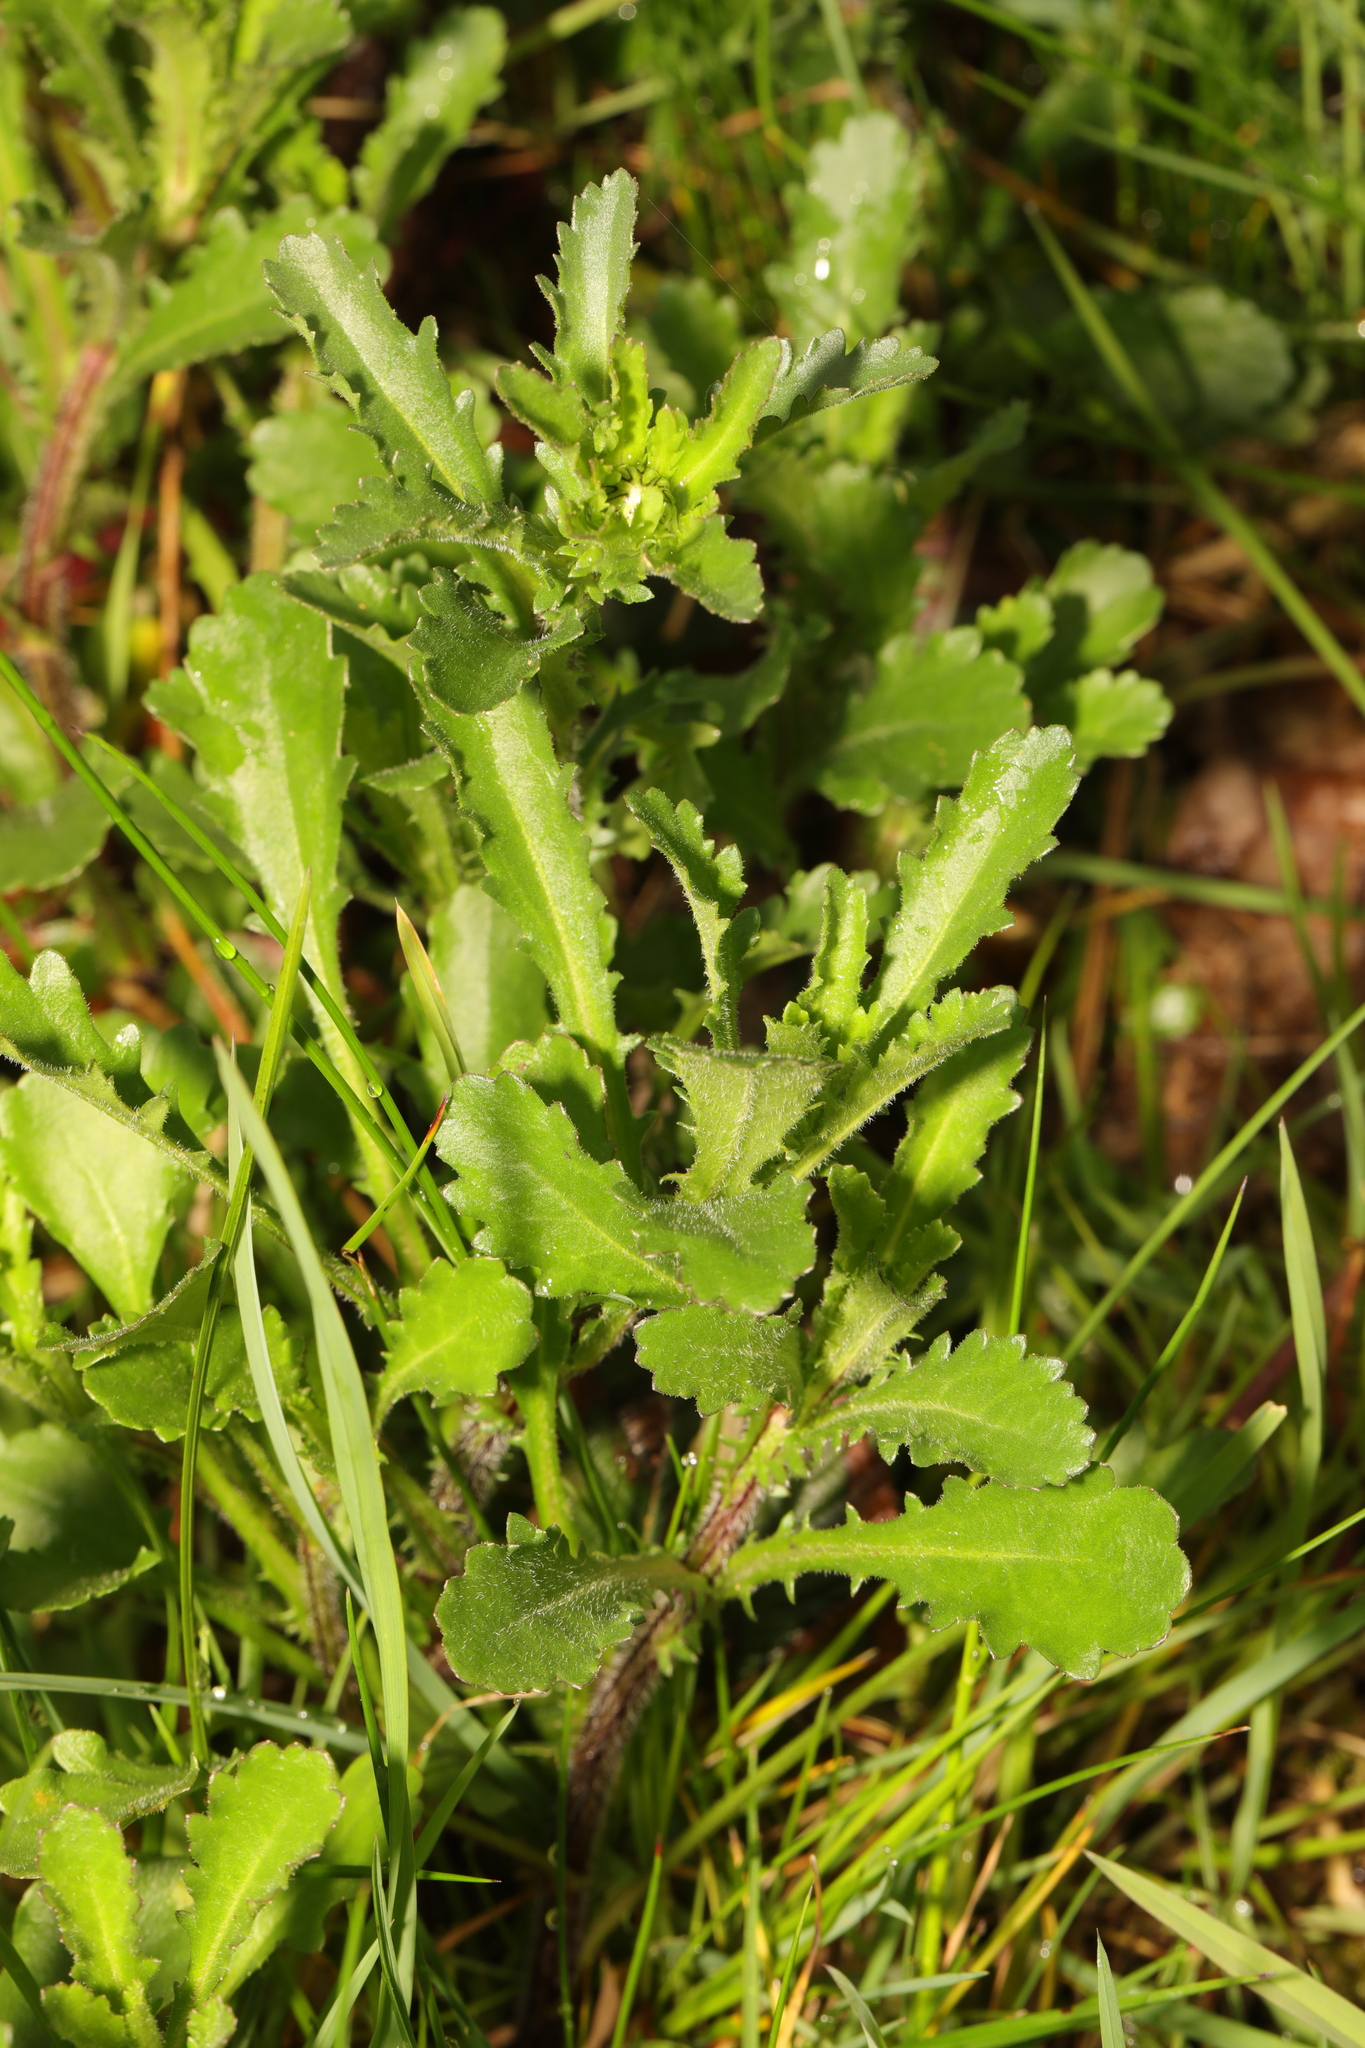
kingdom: Plantae
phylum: Tracheophyta
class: Magnoliopsida
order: Asterales
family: Asteraceae
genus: Leucanthemum
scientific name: Leucanthemum vulgare
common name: Oxeye daisy
